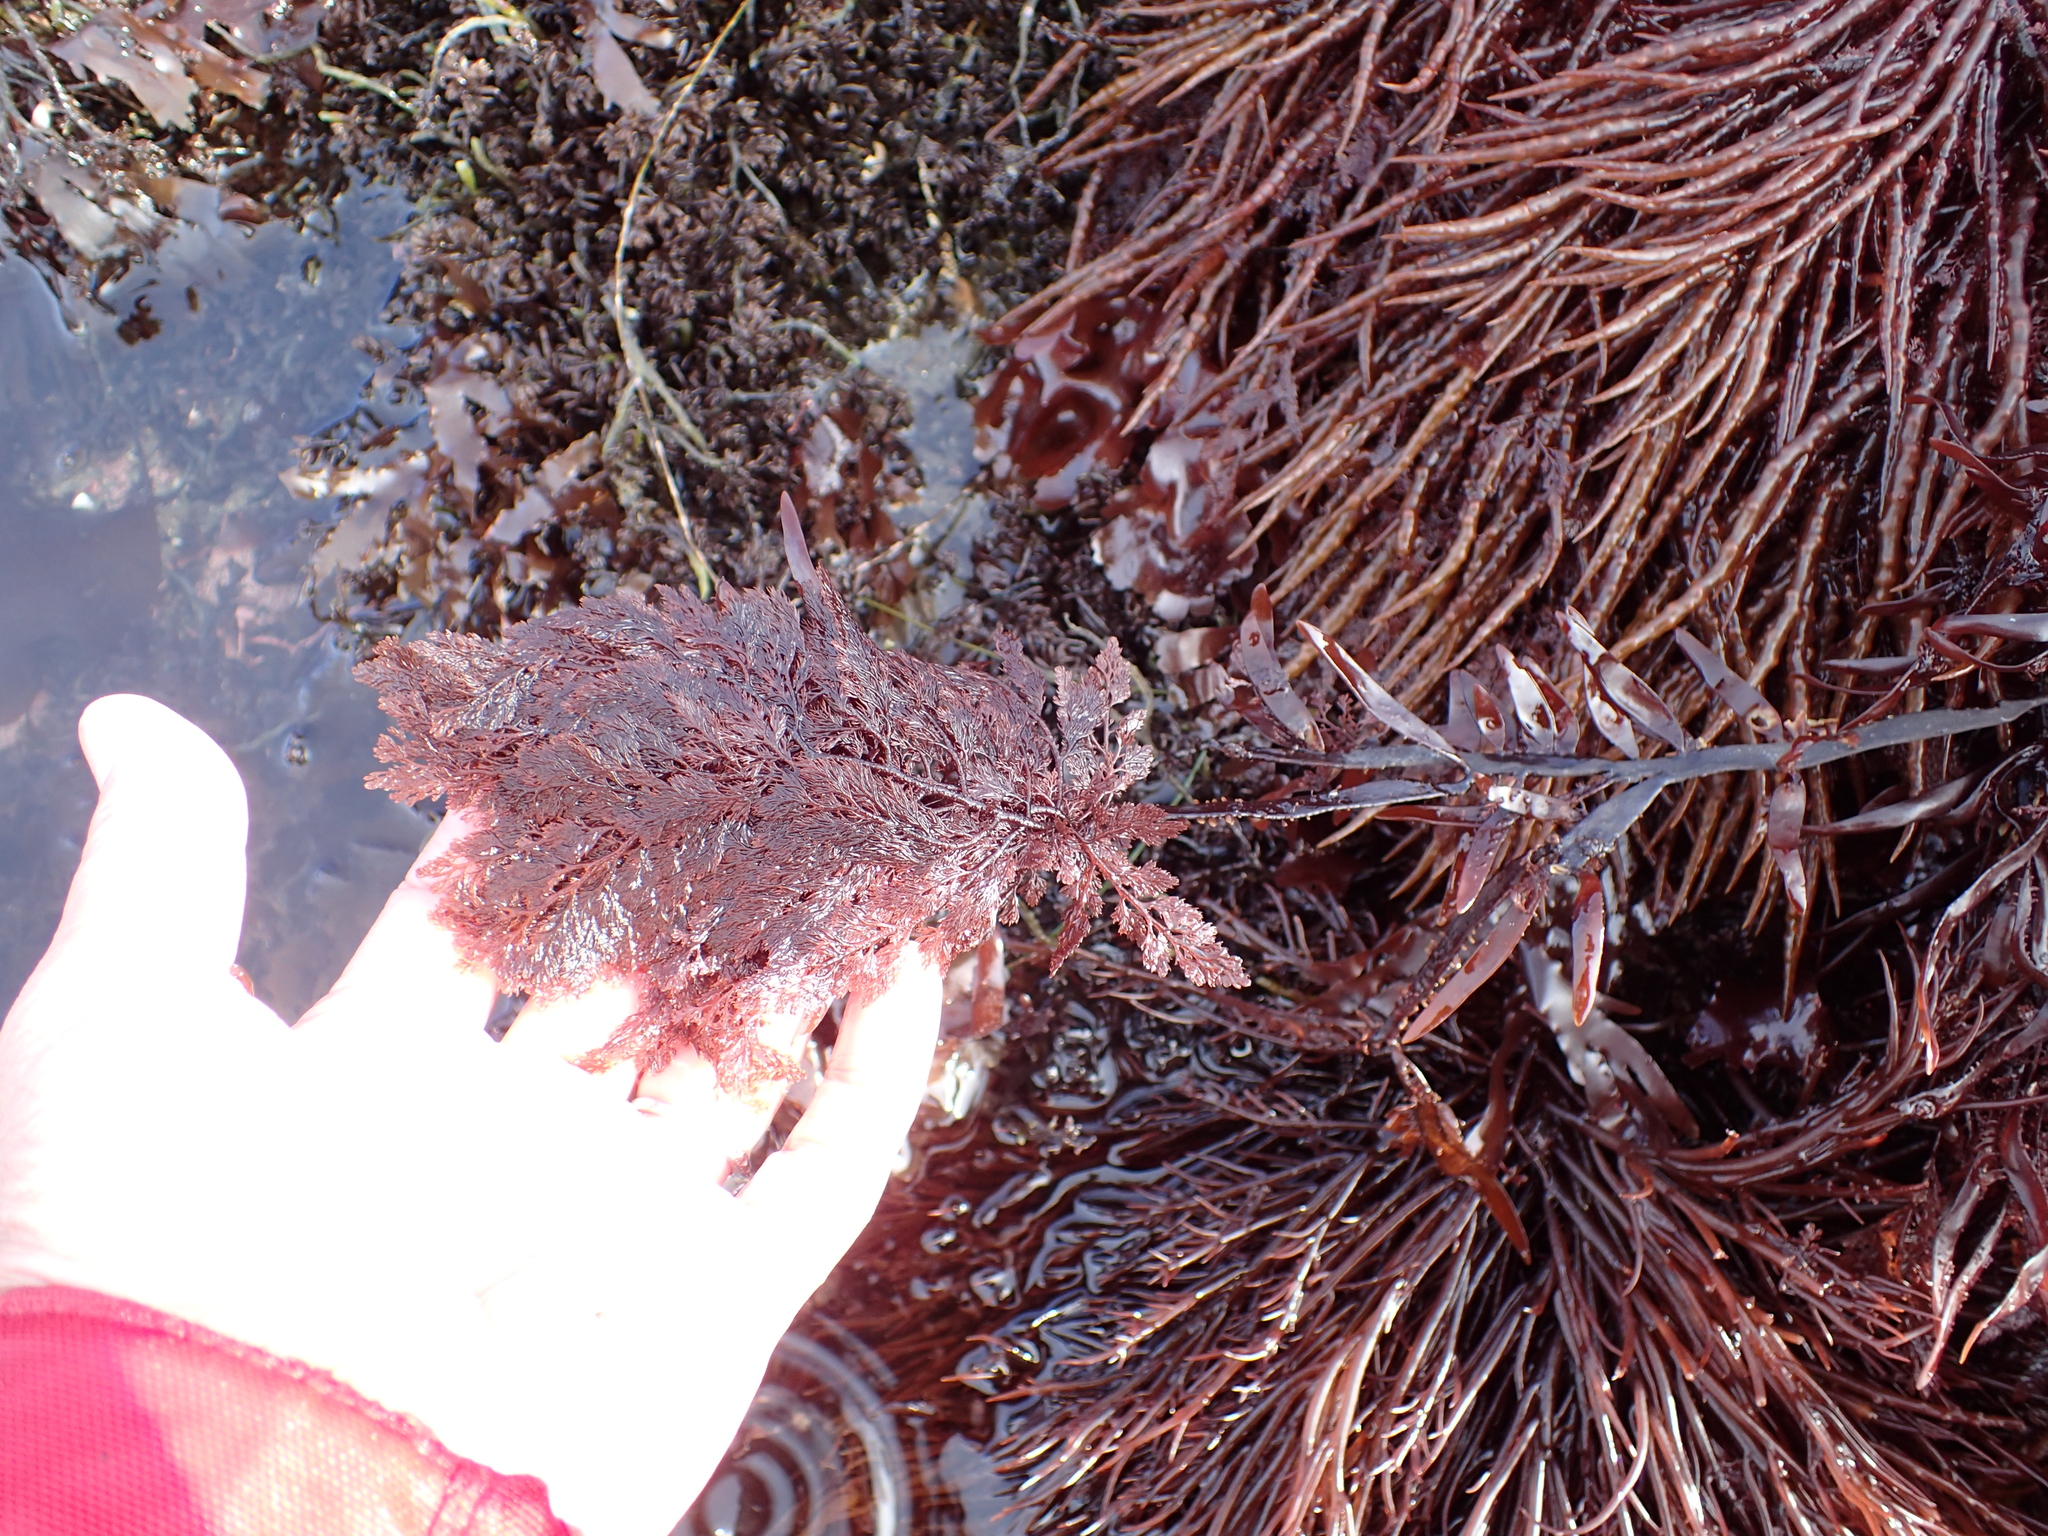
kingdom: Plantae
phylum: Rhodophyta
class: Florideophyceae
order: Ceramiales
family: Ceramiaceae
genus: Microcladia
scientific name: Microcladia coulteri
